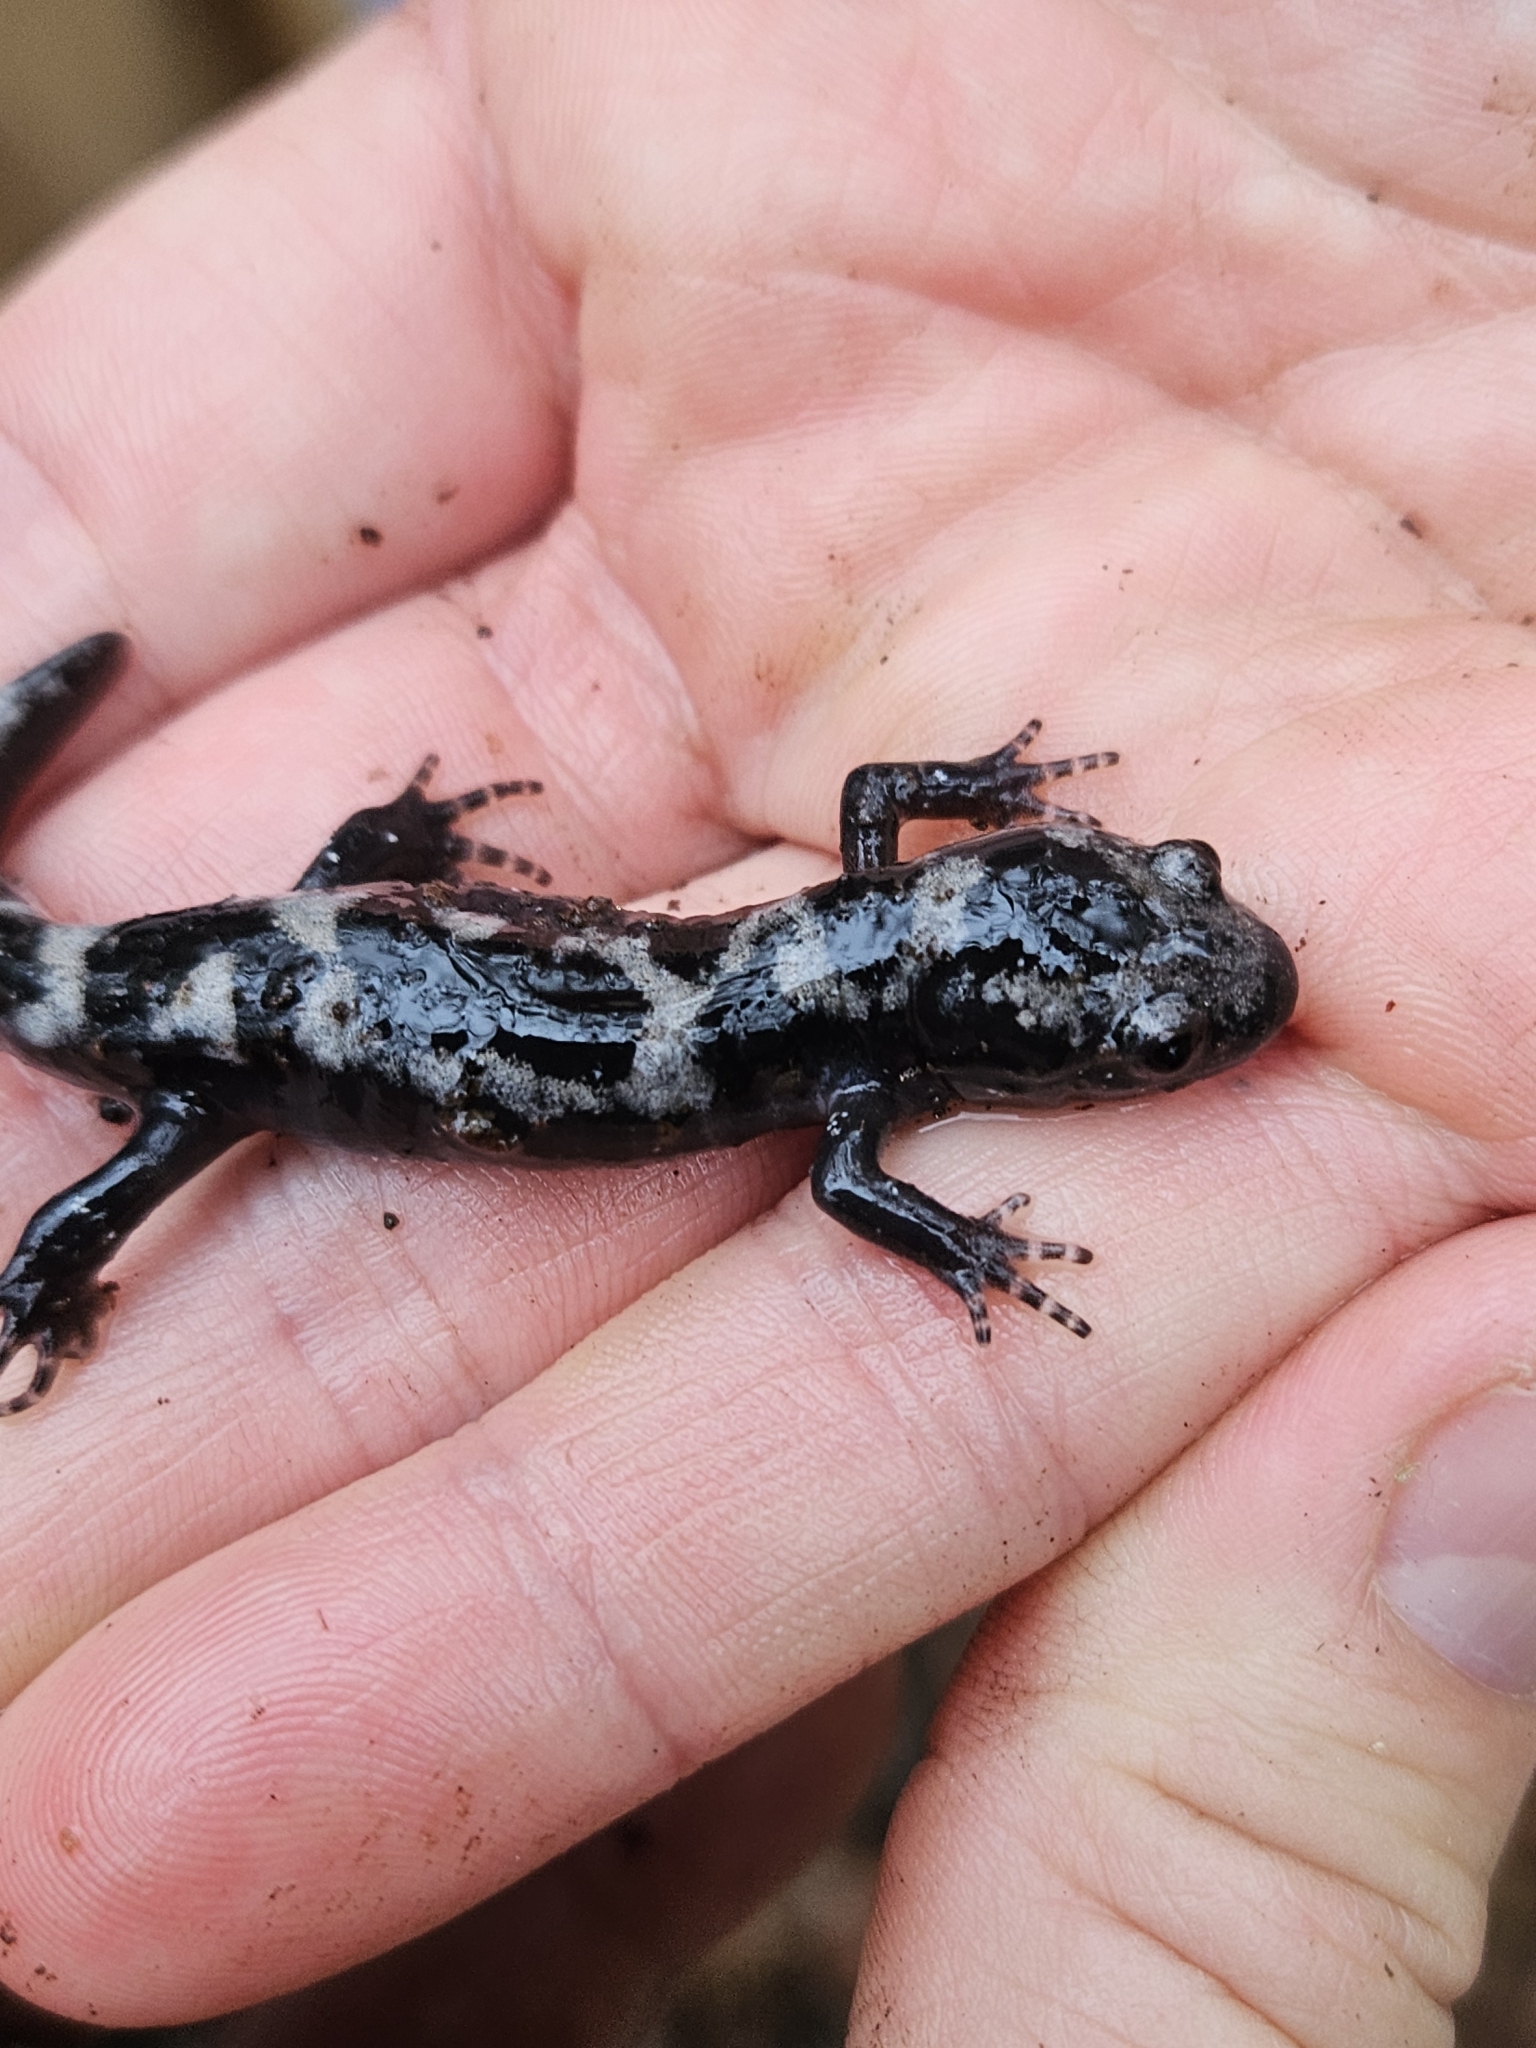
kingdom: Animalia
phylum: Chordata
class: Amphibia
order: Caudata
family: Ambystomatidae
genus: Ambystoma
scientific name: Ambystoma opacum
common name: Marbled salamander
